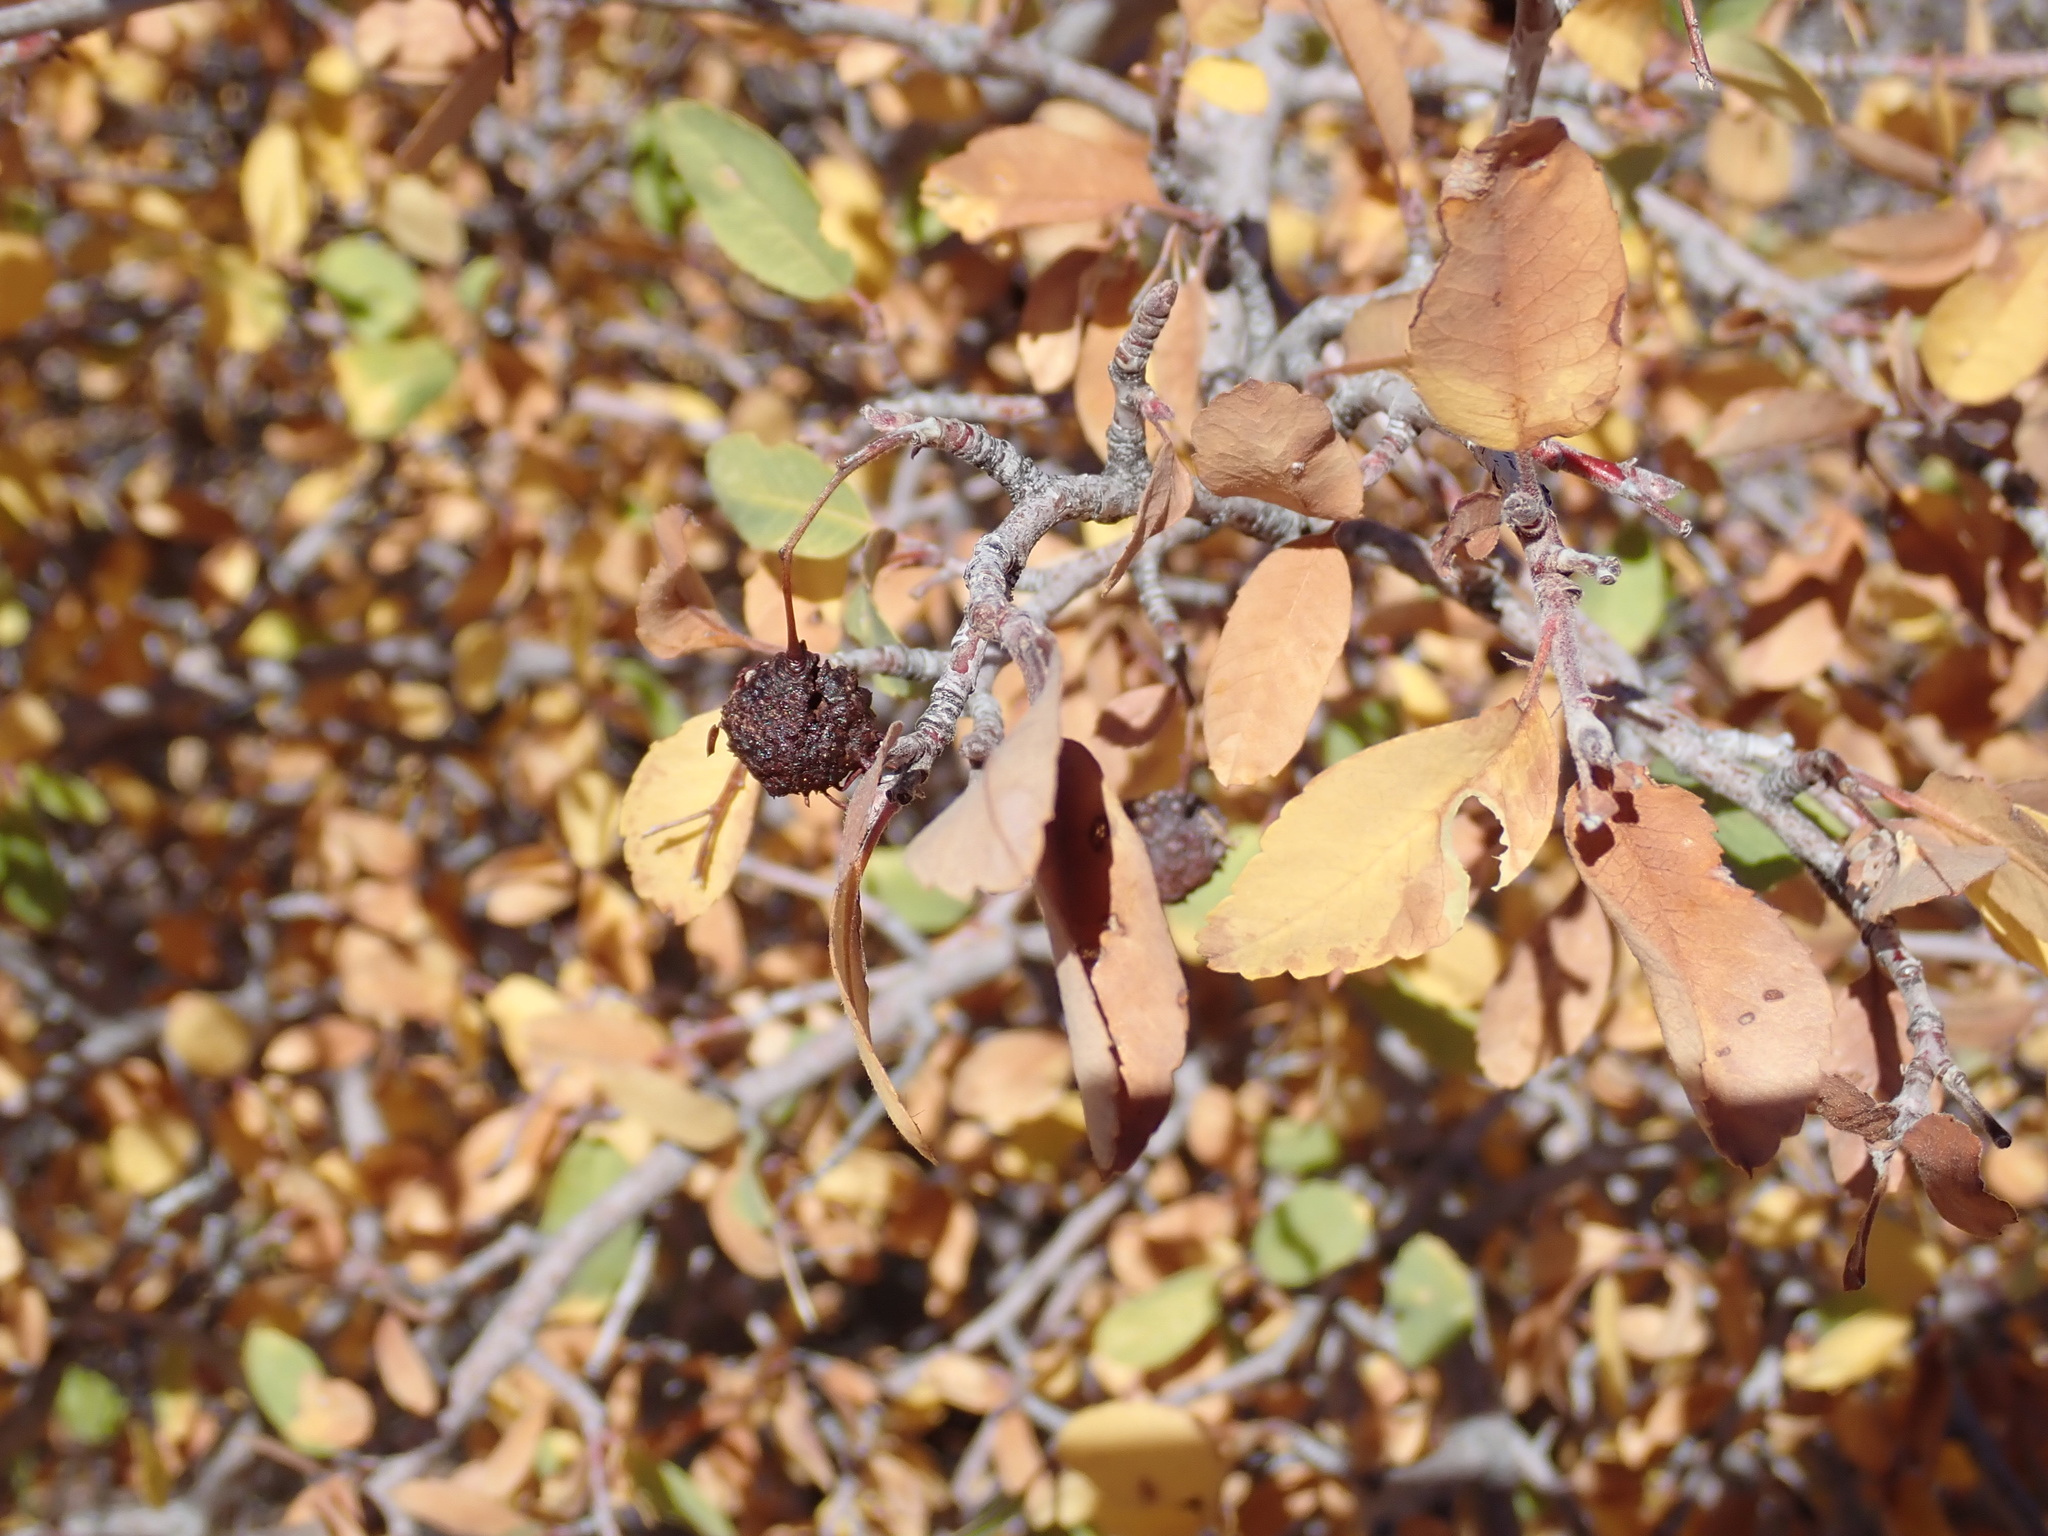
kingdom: Plantae
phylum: Tracheophyta
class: Magnoliopsida
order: Rosales
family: Rosaceae
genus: Amelanchier
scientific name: Amelanchier utahensis
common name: Utah serviceberry
